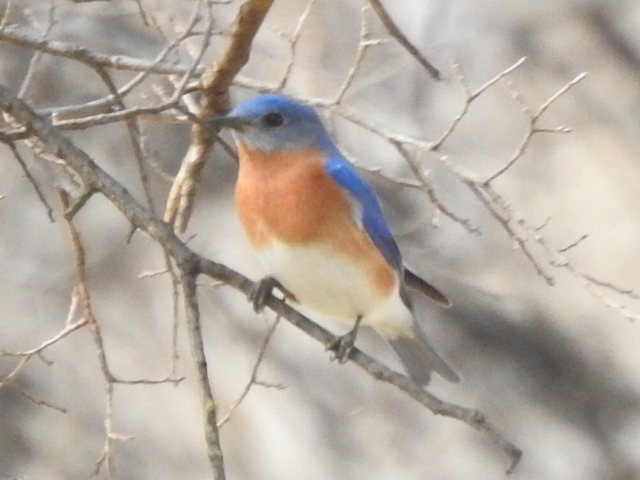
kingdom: Animalia
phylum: Chordata
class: Aves
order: Passeriformes
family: Turdidae
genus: Sialia
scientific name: Sialia sialis
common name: Eastern bluebird
